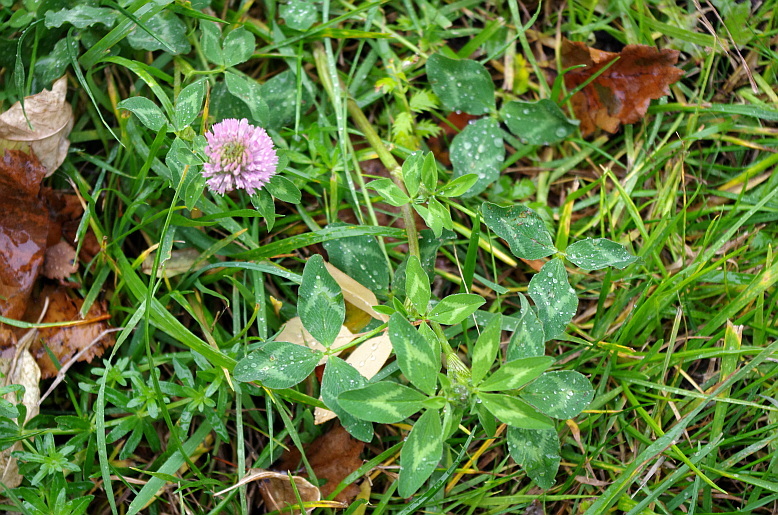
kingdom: Plantae
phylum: Tracheophyta
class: Magnoliopsida
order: Fabales
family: Fabaceae
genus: Trifolium
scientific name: Trifolium pratense
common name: Red clover
